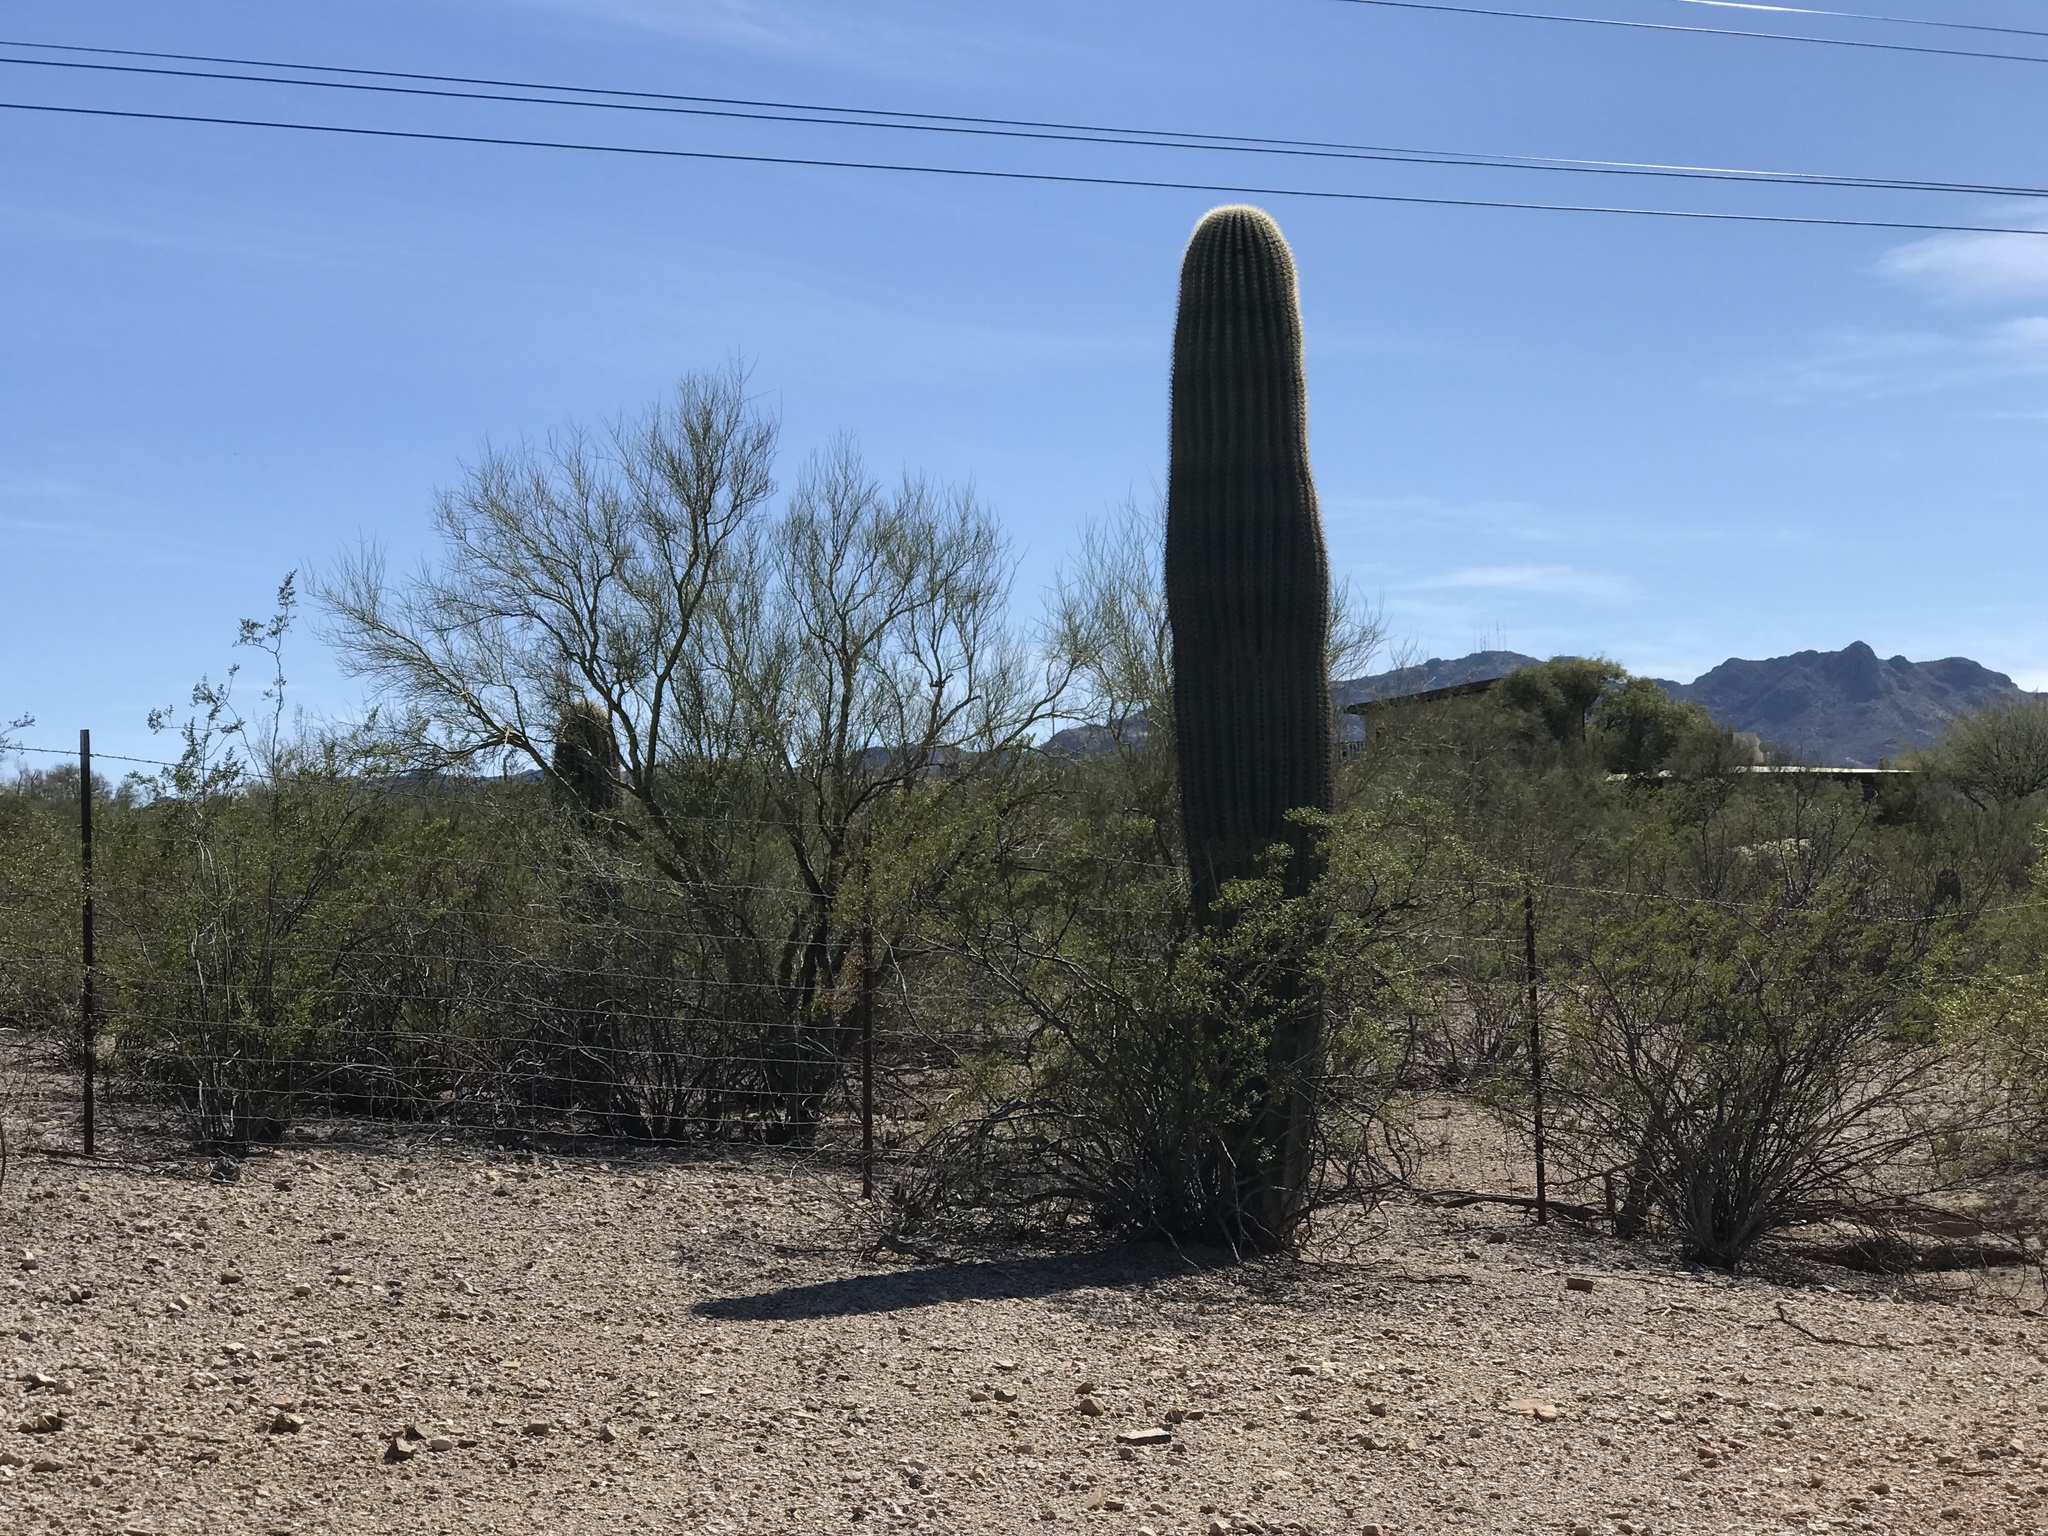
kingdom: Plantae
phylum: Tracheophyta
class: Magnoliopsida
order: Caryophyllales
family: Cactaceae
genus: Carnegiea
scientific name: Carnegiea gigantea
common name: Saguaro
